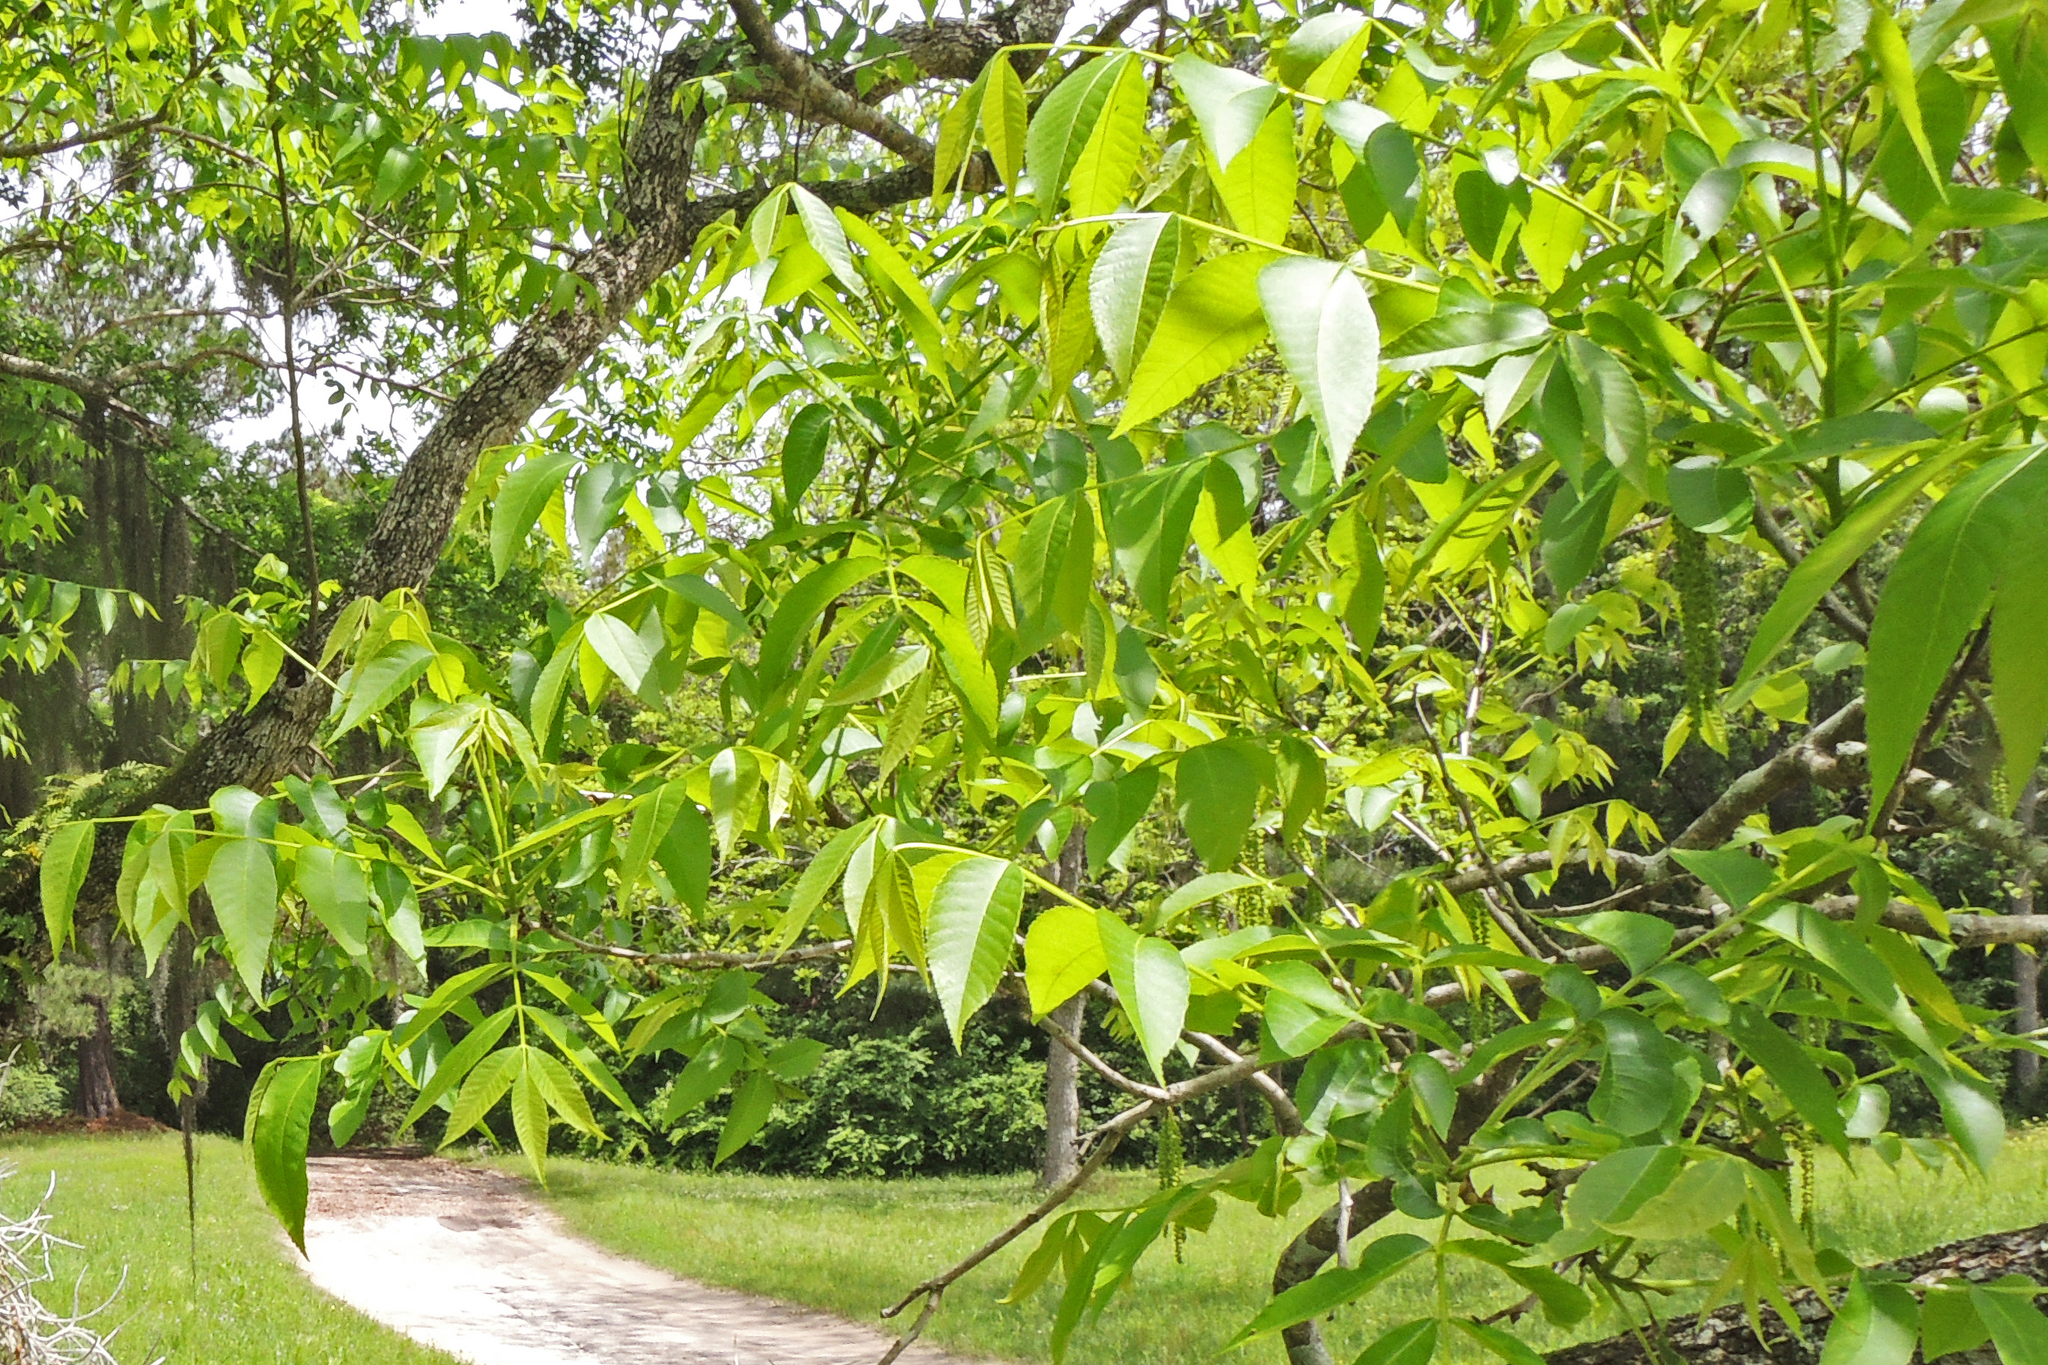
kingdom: Plantae
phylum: Tracheophyta
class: Magnoliopsida
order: Fagales
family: Juglandaceae
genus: Carya
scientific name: Carya illinoinensis
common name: Pecan
